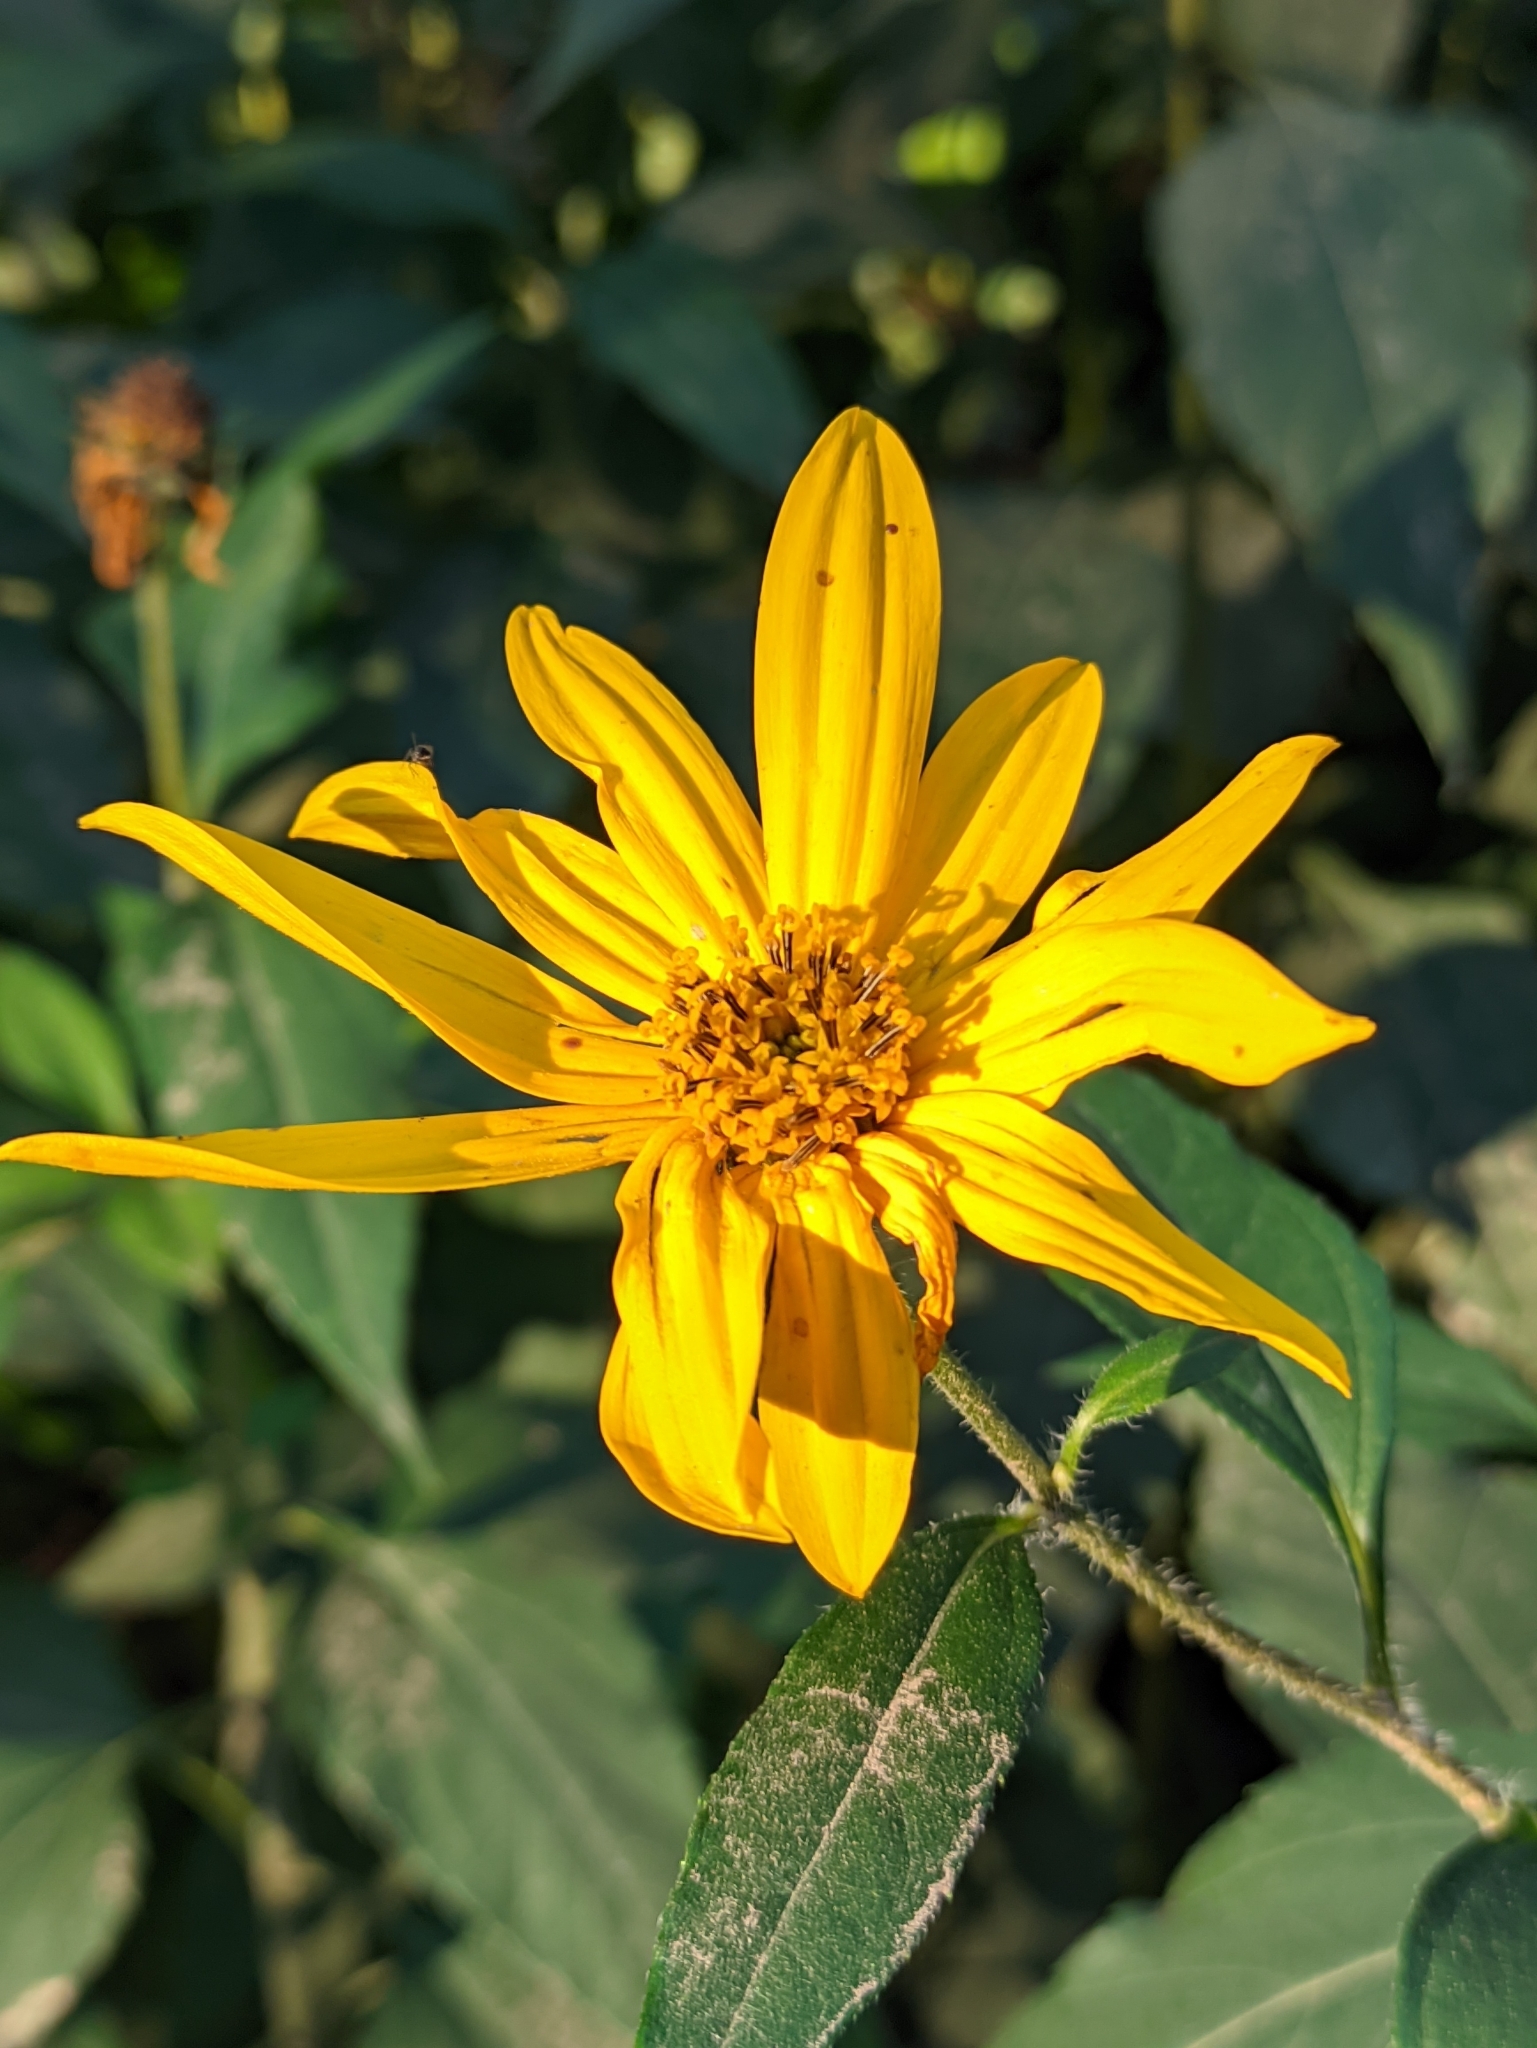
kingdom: Plantae
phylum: Tracheophyta
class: Magnoliopsida
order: Asterales
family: Asteraceae
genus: Helianthus
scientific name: Helianthus tuberosus
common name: Jerusalem artichoke
